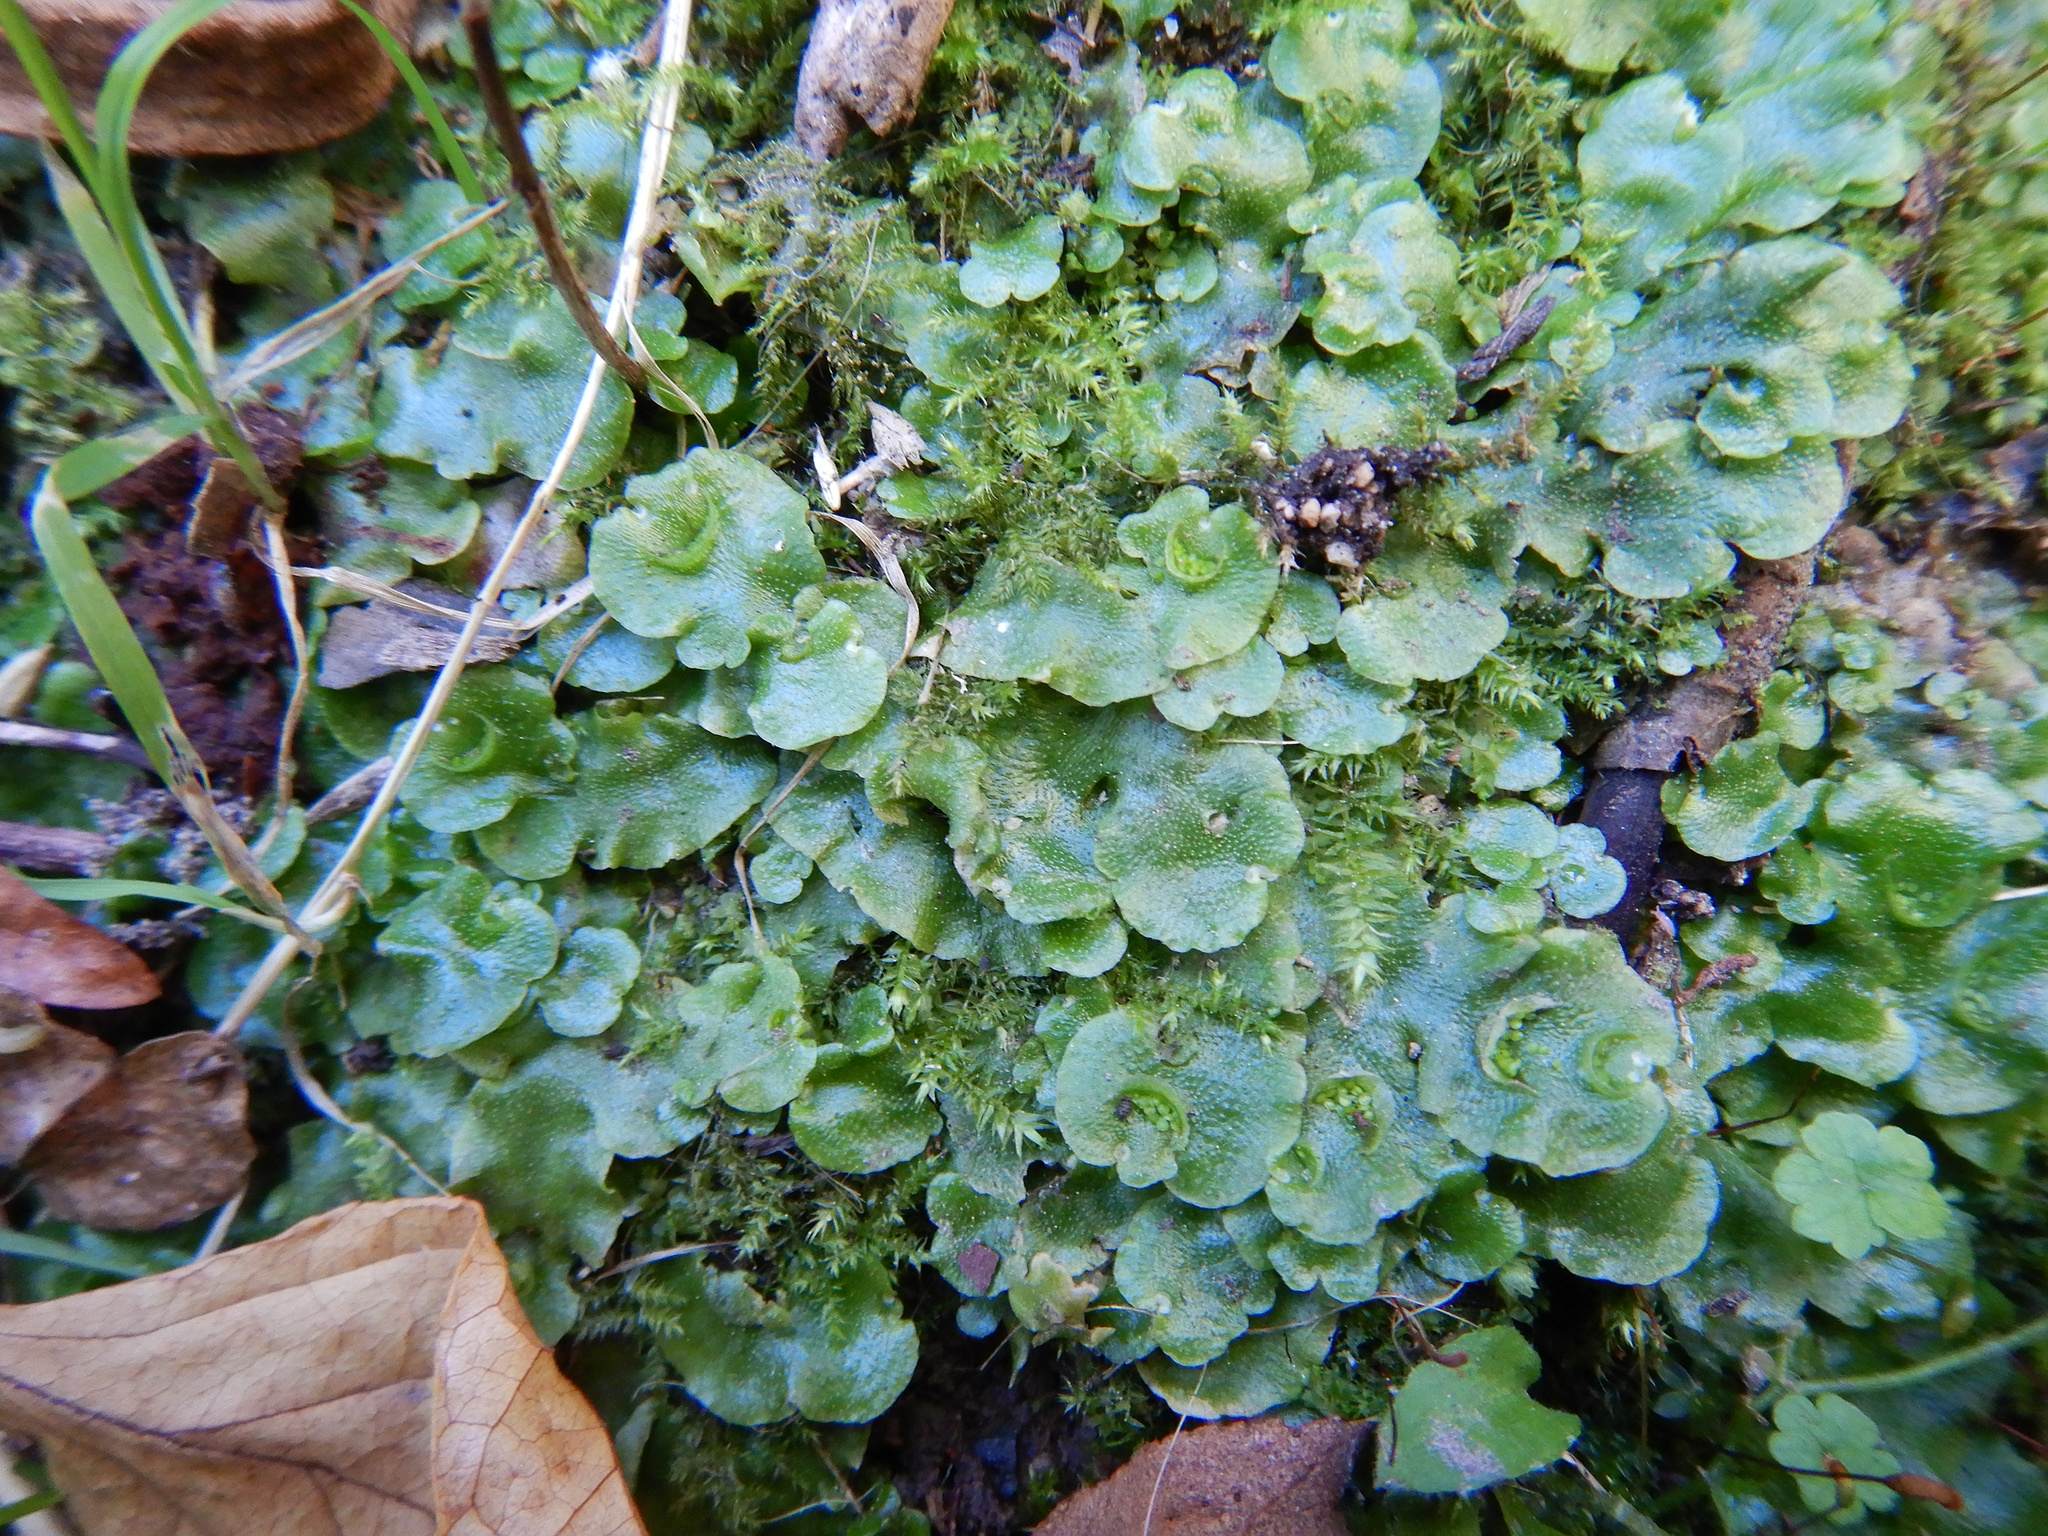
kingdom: Plantae
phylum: Marchantiophyta
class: Marchantiopsida
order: Lunulariales
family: Lunulariaceae
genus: Lunularia
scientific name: Lunularia cruciata
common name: Crescent-cup liverwort
